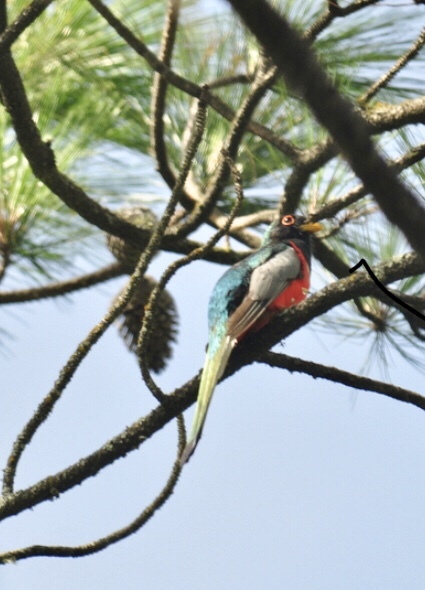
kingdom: Animalia
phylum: Chordata
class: Aves
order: Trogoniformes
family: Trogonidae
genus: Trogon
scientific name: Trogon elegans
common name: Elegant trogon
